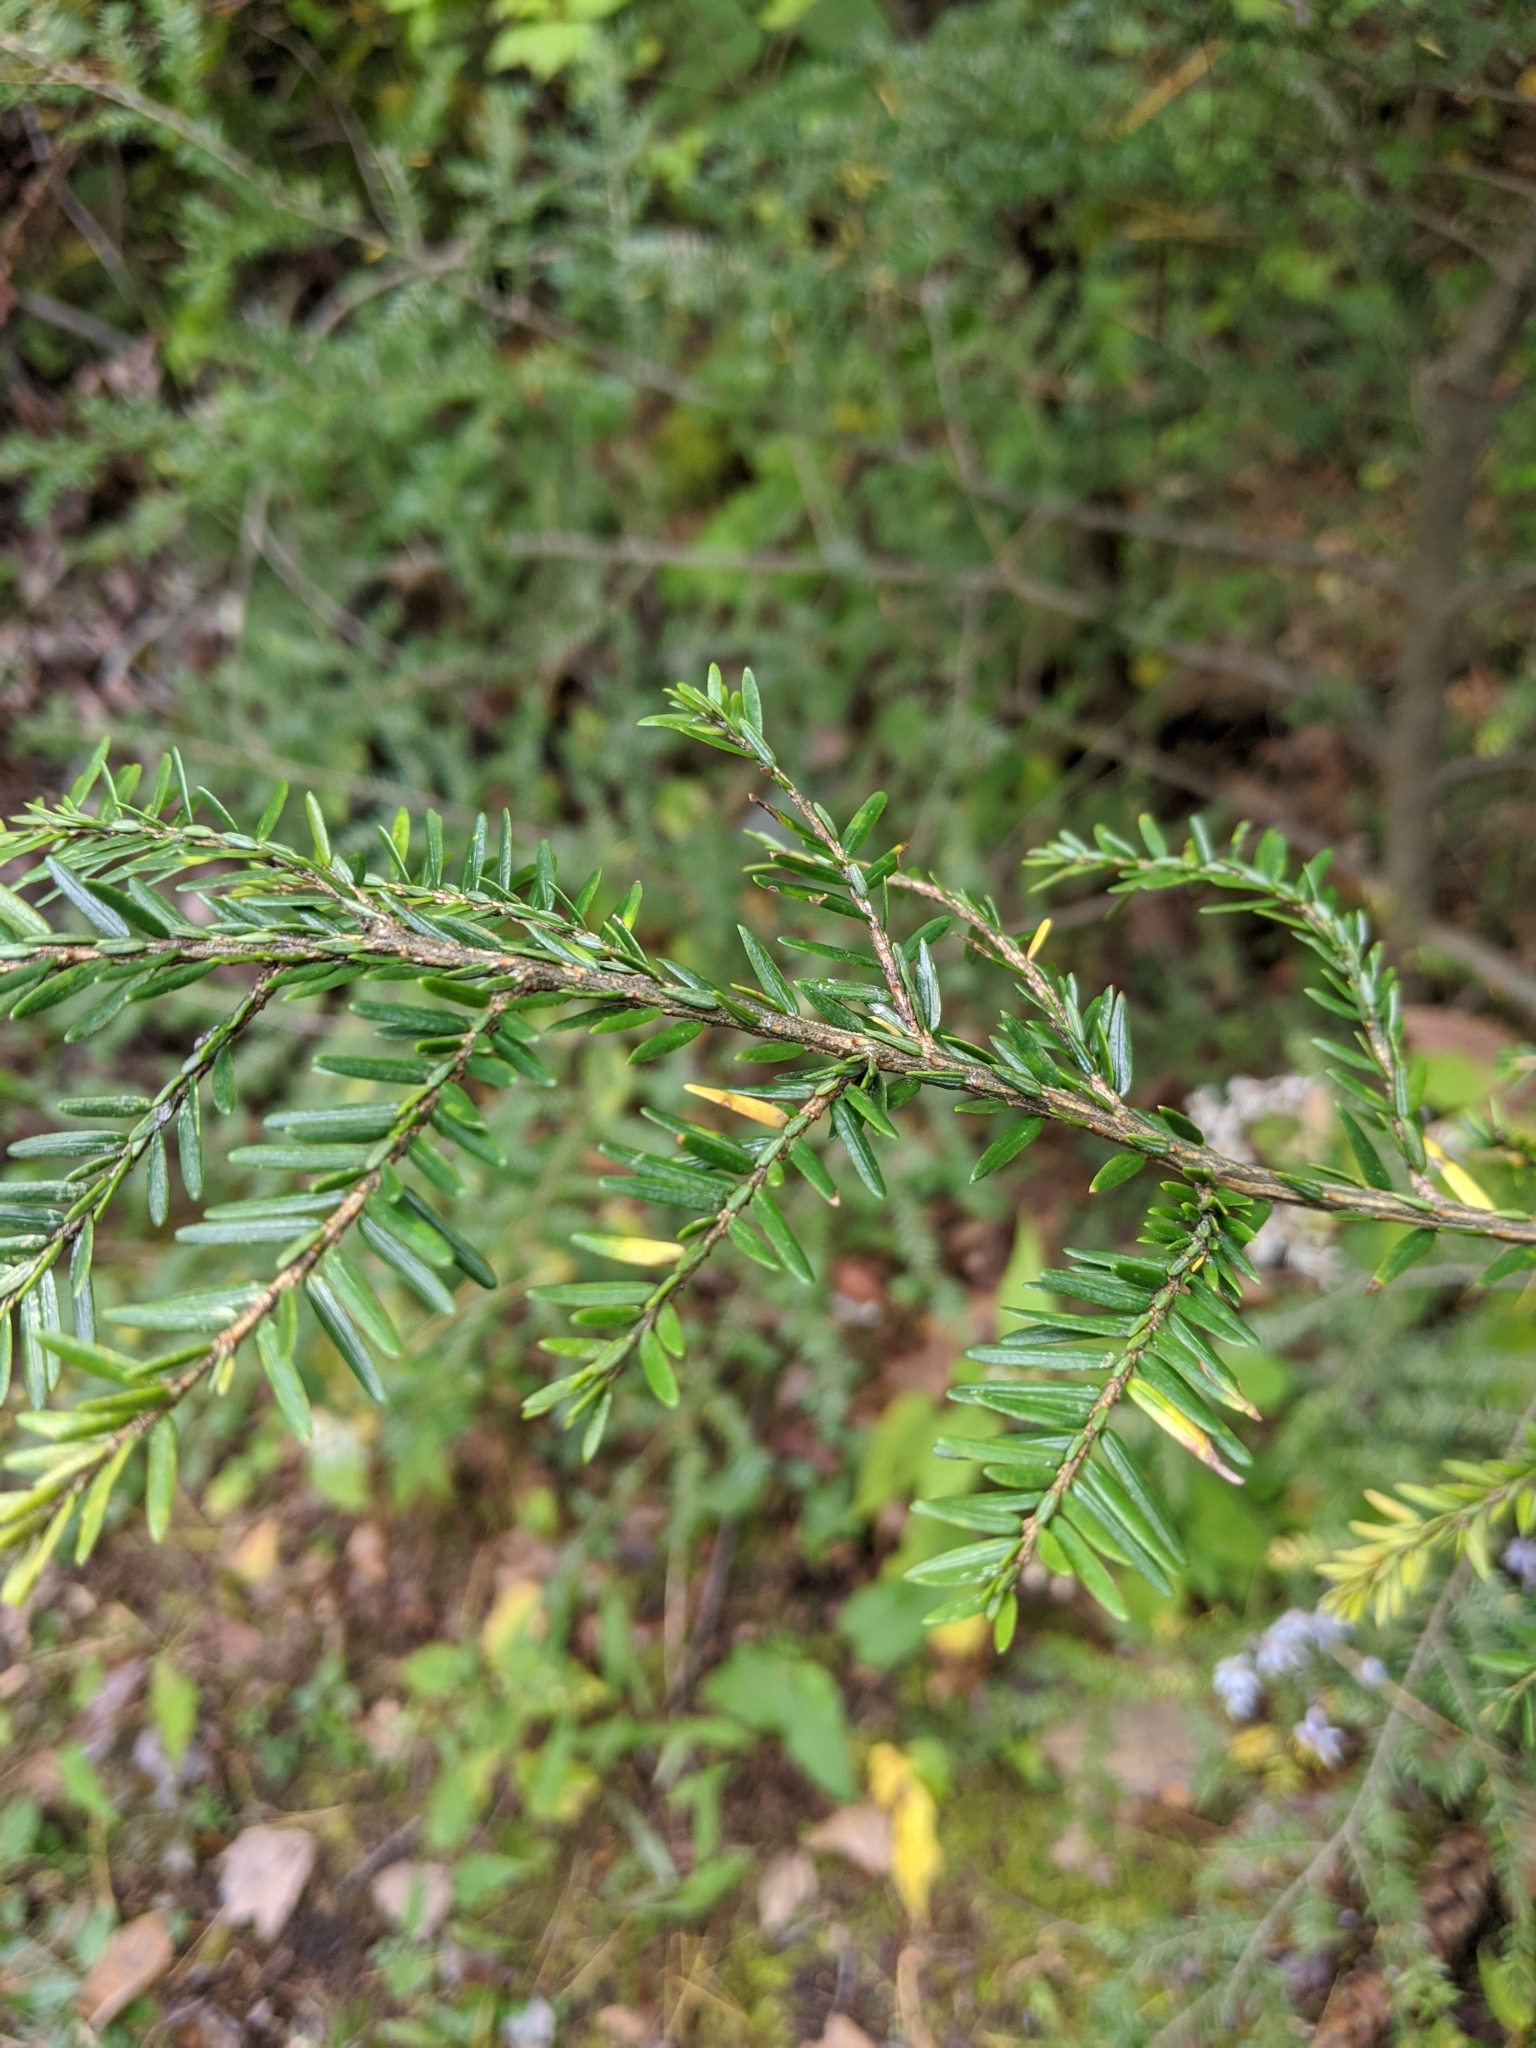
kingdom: Plantae
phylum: Tracheophyta
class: Pinopsida
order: Pinales
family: Pinaceae
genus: Tsuga
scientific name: Tsuga canadensis
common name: Eastern hemlock
